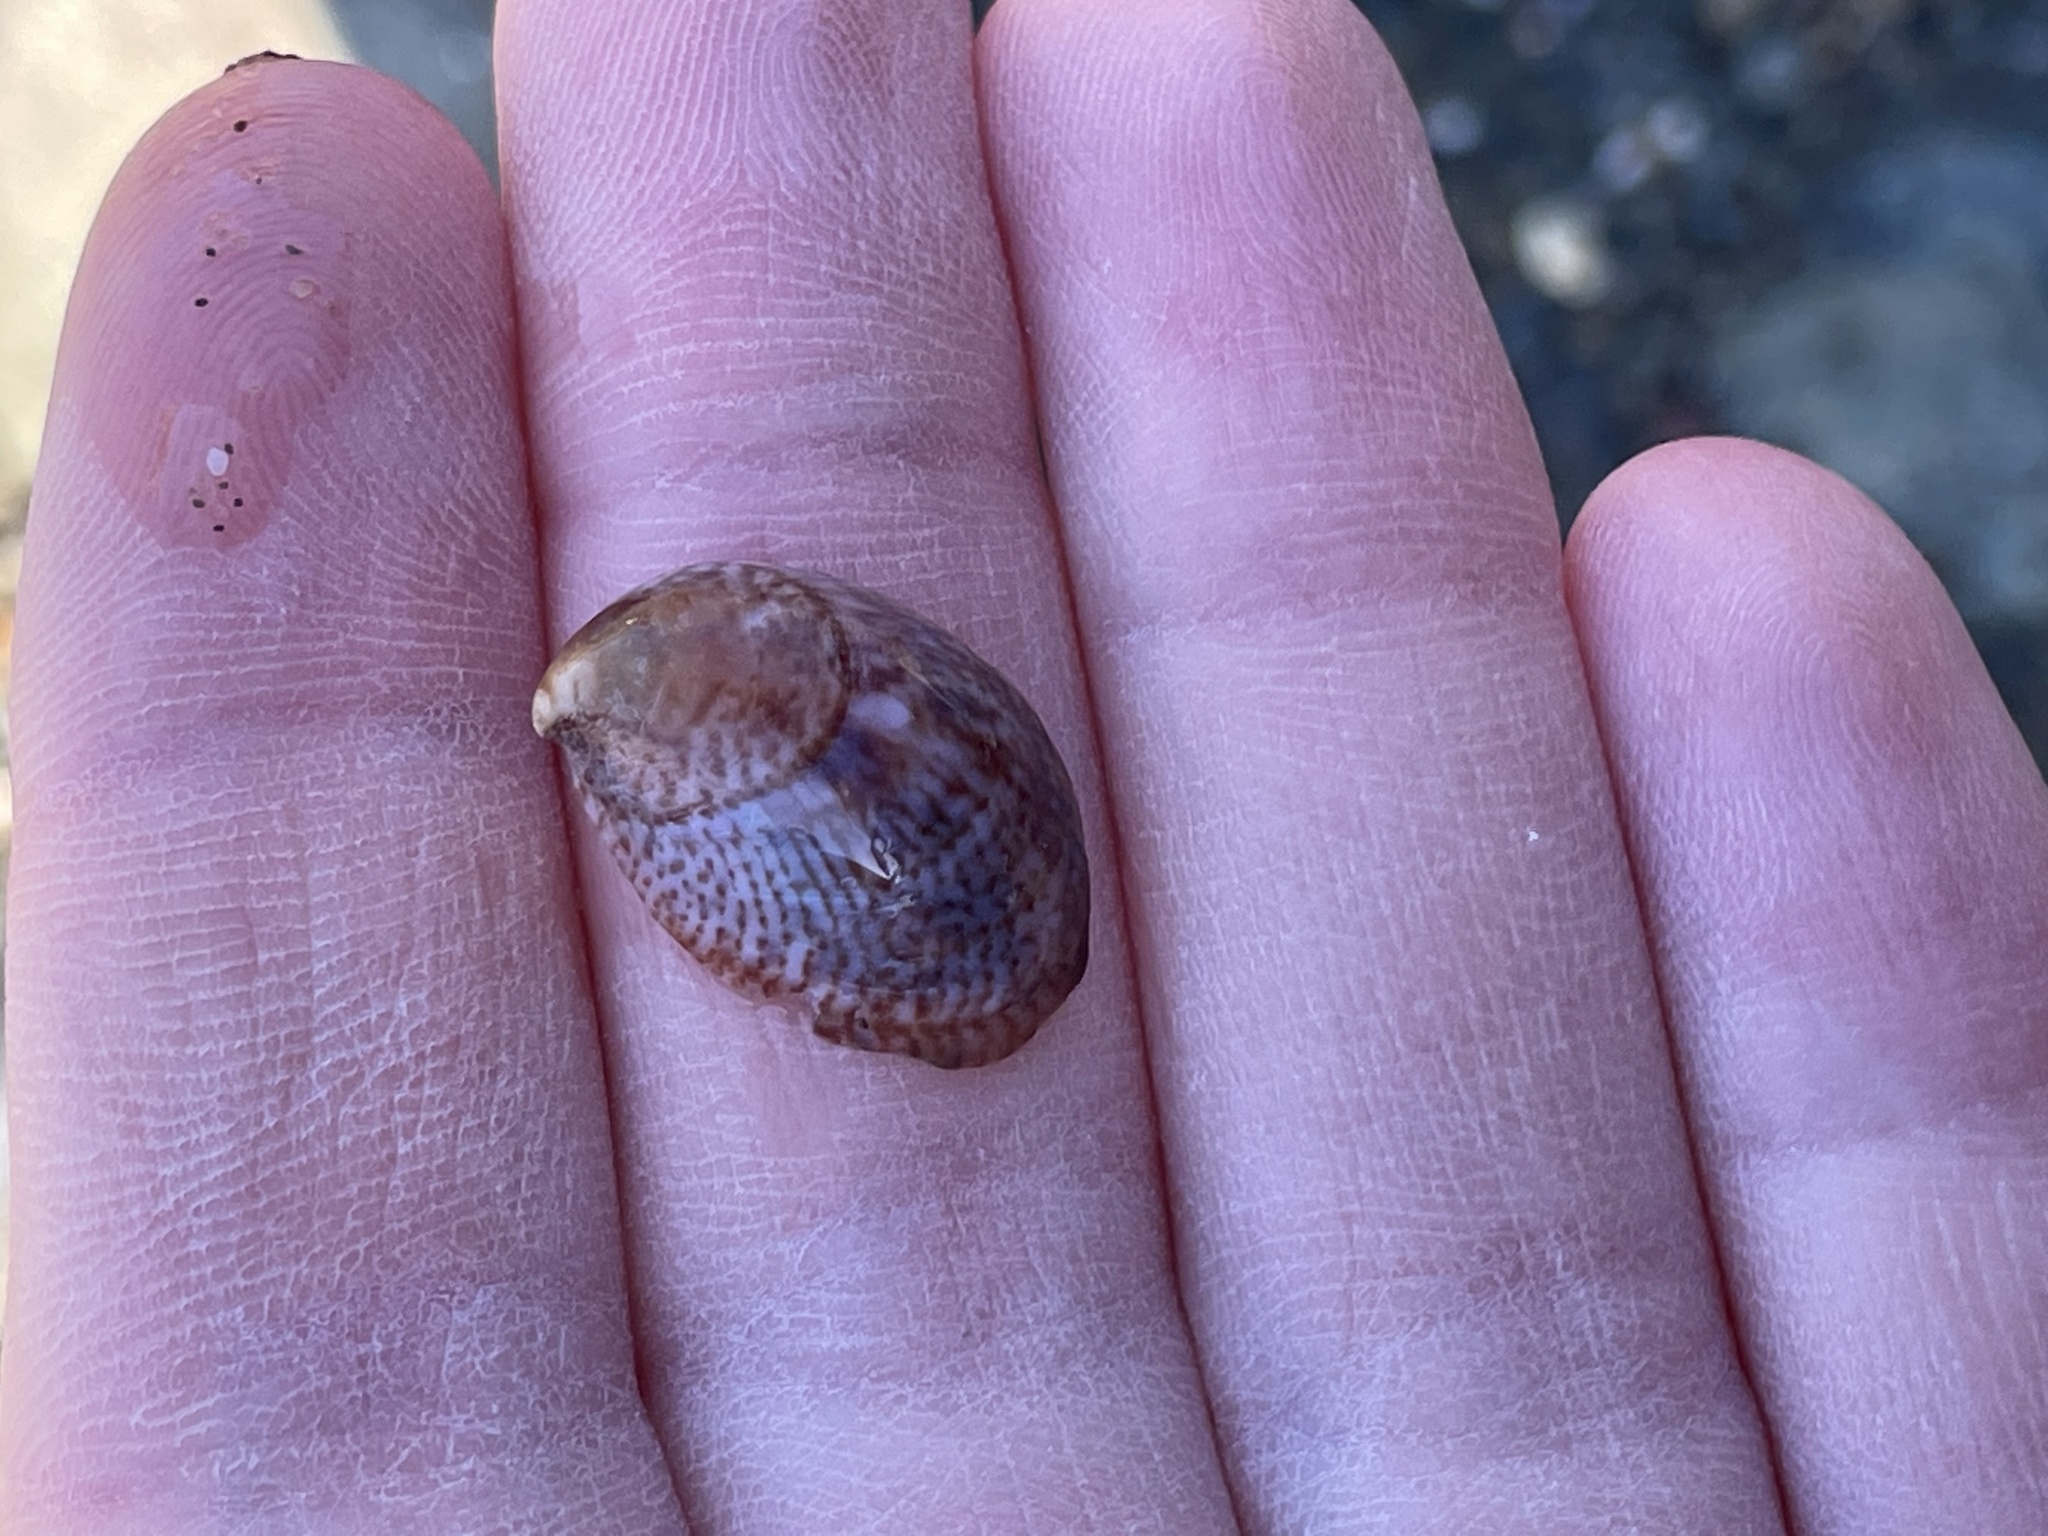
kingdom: Animalia
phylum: Mollusca
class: Gastropoda
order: Littorinimorpha
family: Calyptraeidae
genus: Crepidula
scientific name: Crepidula fornicata
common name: Slipper limpet
